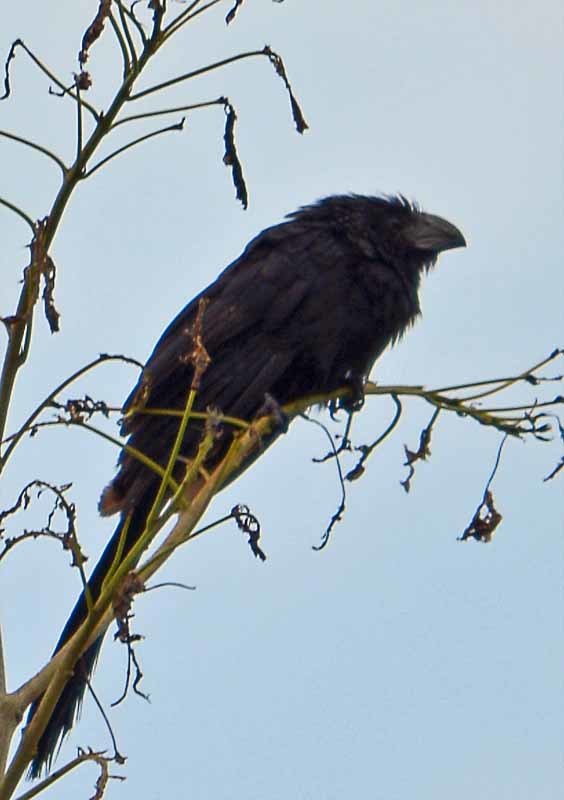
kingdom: Animalia
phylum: Chordata
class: Aves
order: Cuculiformes
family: Cuculidae
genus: Crotophaga
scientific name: Crotophaga sulcirostris
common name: Groove-billed ani
